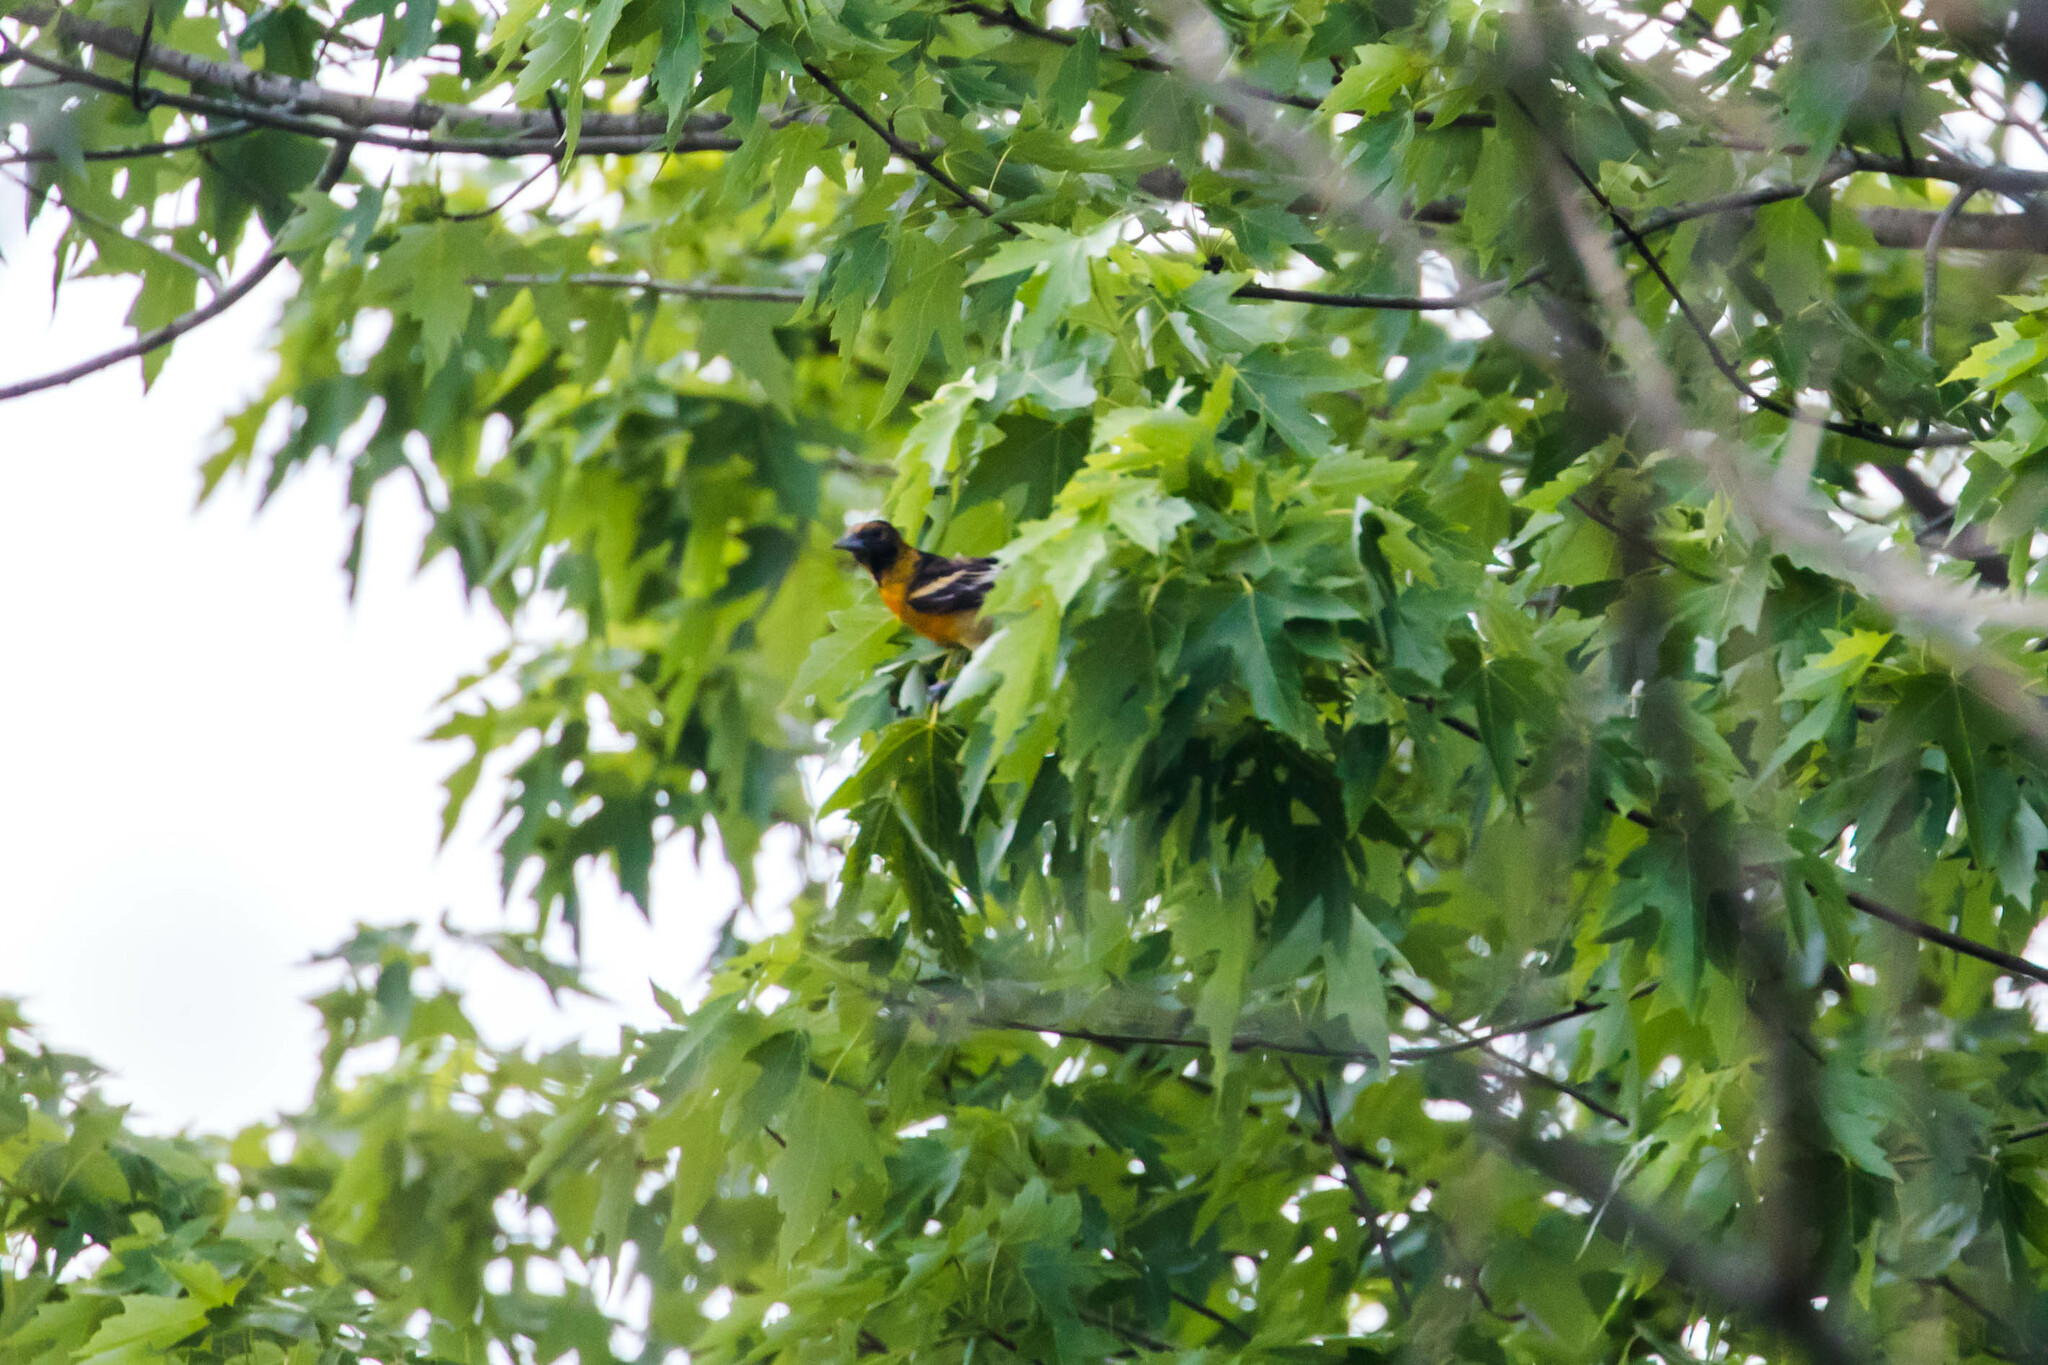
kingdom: Animalia
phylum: Chordata
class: Aves
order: Passeriformes
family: Icteridae
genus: Icterus
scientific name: Icterus galbula
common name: Baltimore oriole
